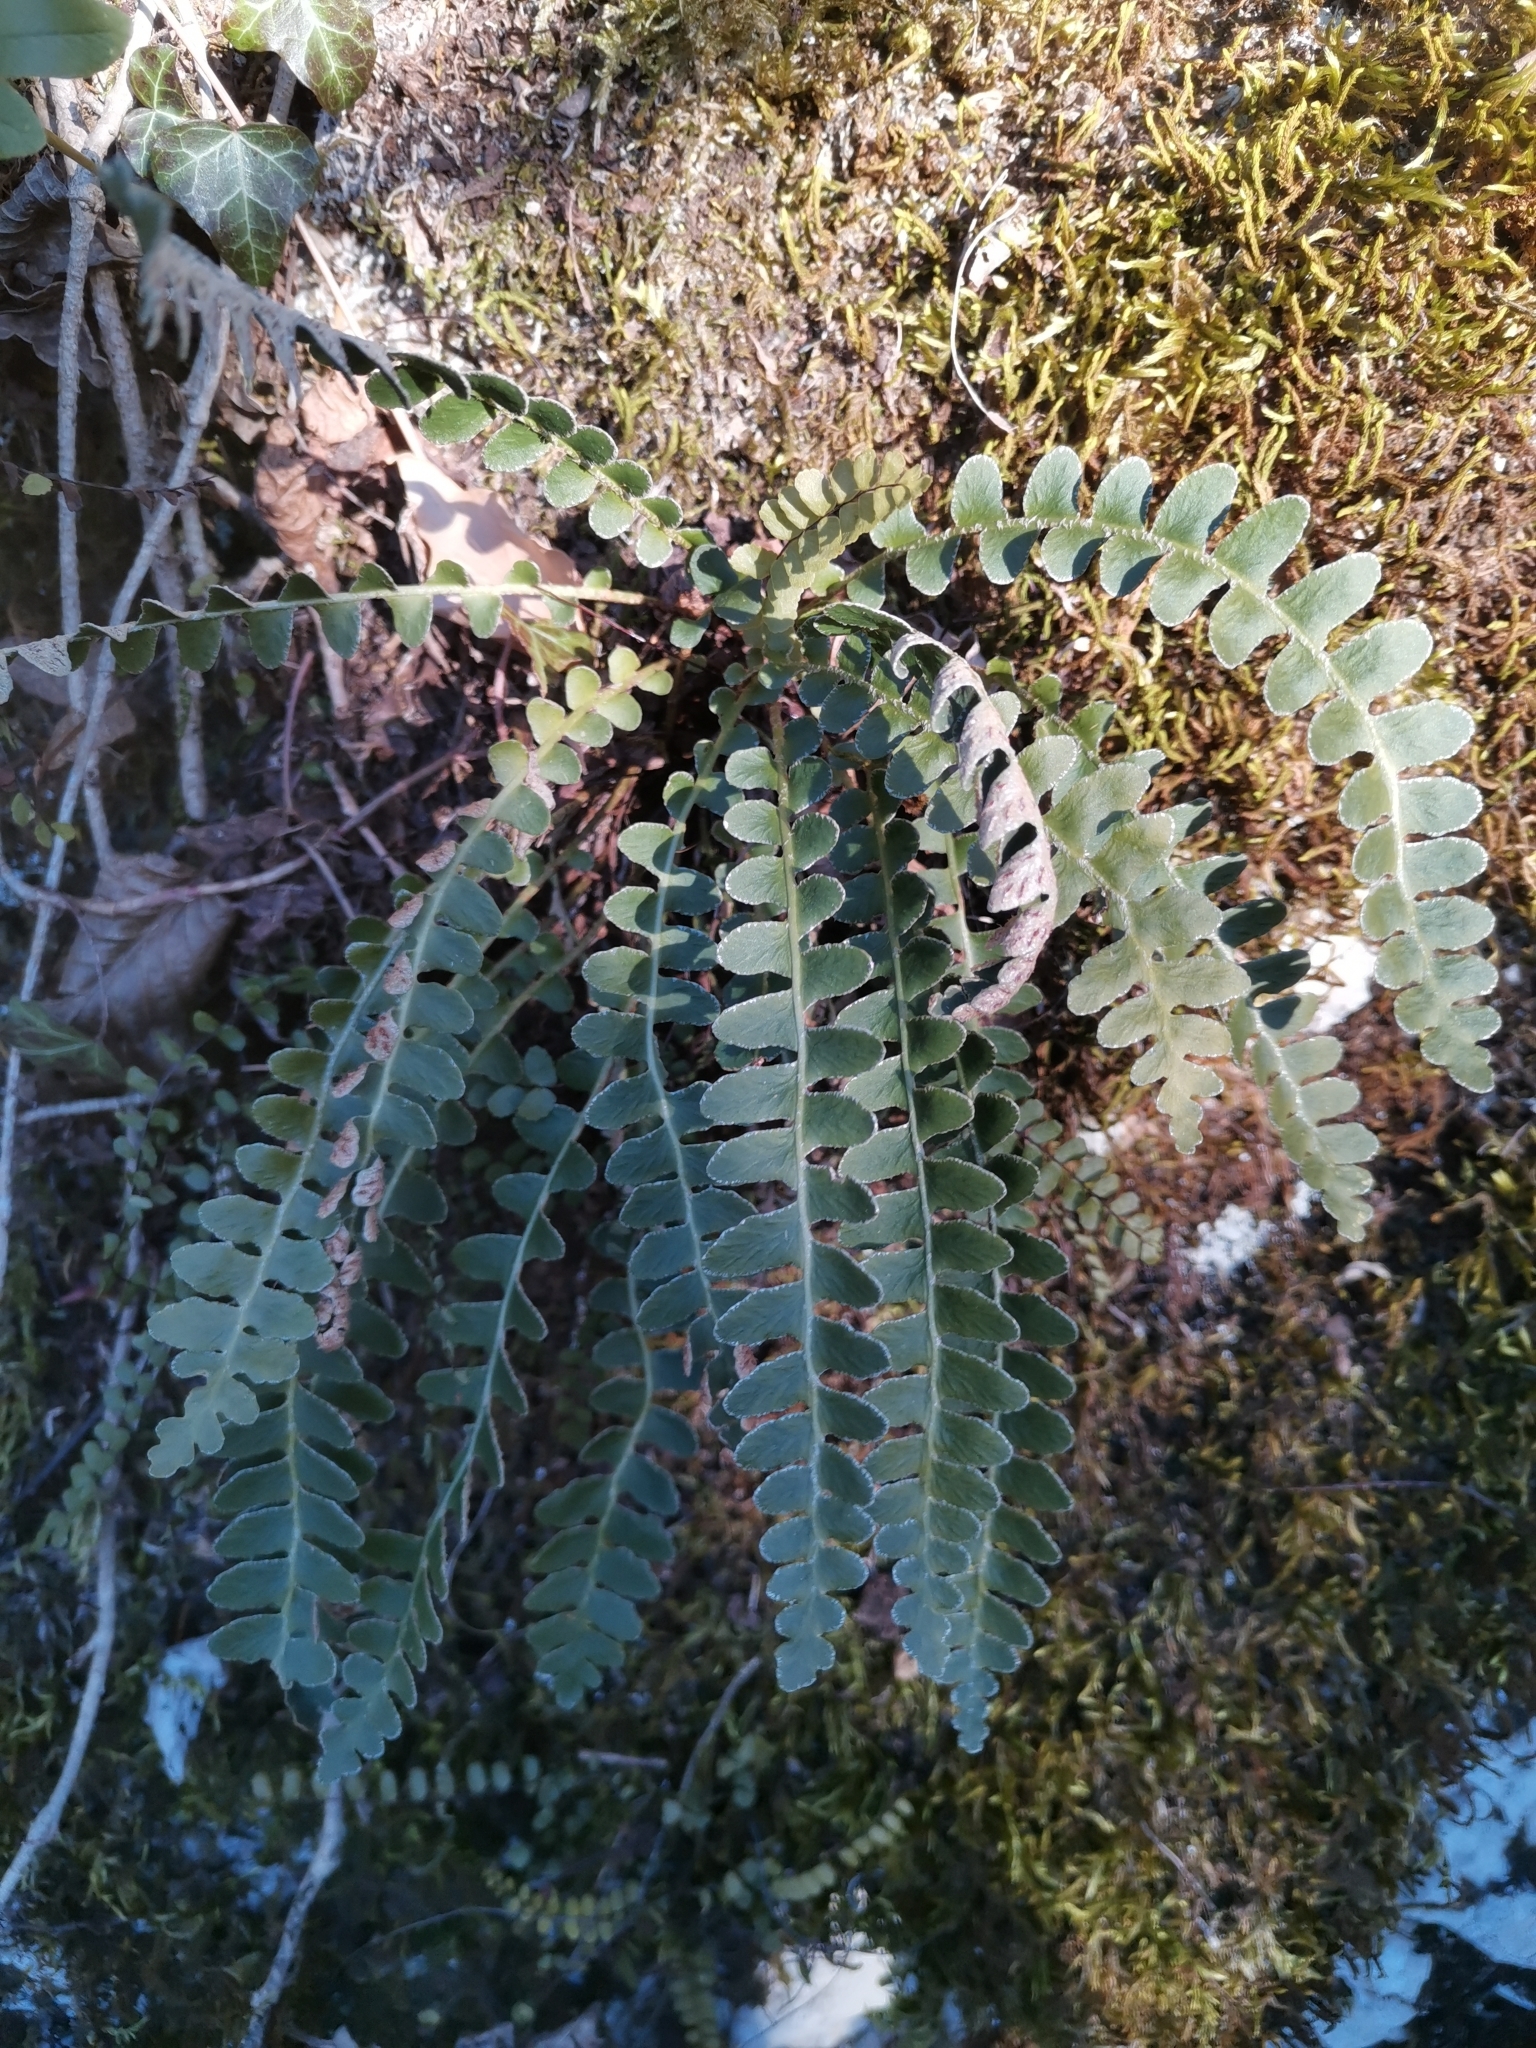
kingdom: Plantae
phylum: Tracheophyta
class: Polypodiopsida
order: Polypodiales
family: Aspleniaceae
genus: Asplenium
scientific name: Asplenium ceterach
